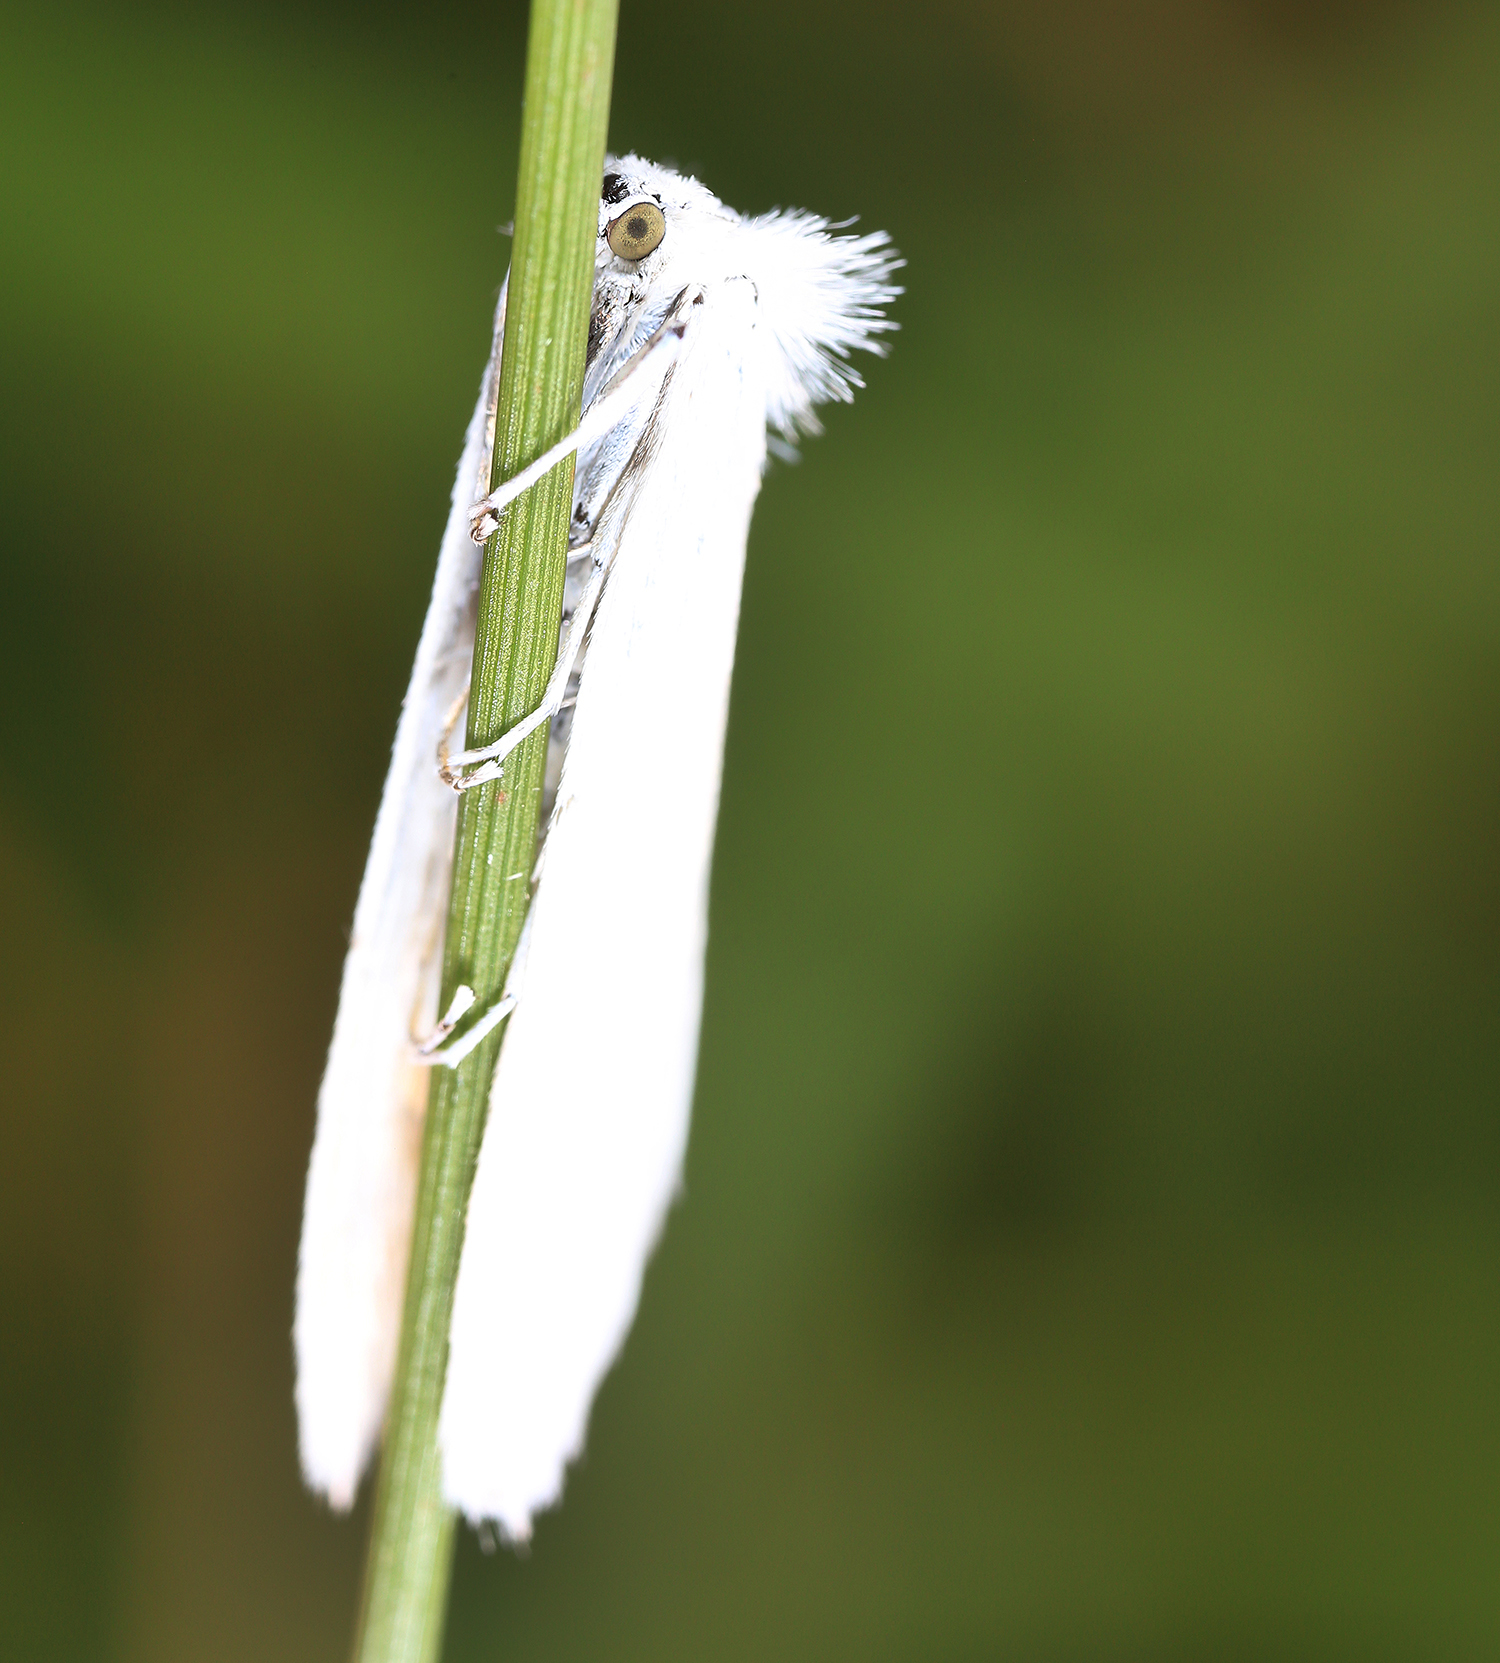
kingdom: Animalia
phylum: Arthropoda
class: Insecta
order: Lepidoptera
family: Crambidae
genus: Tipanaea
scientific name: Tipanaea patulella
